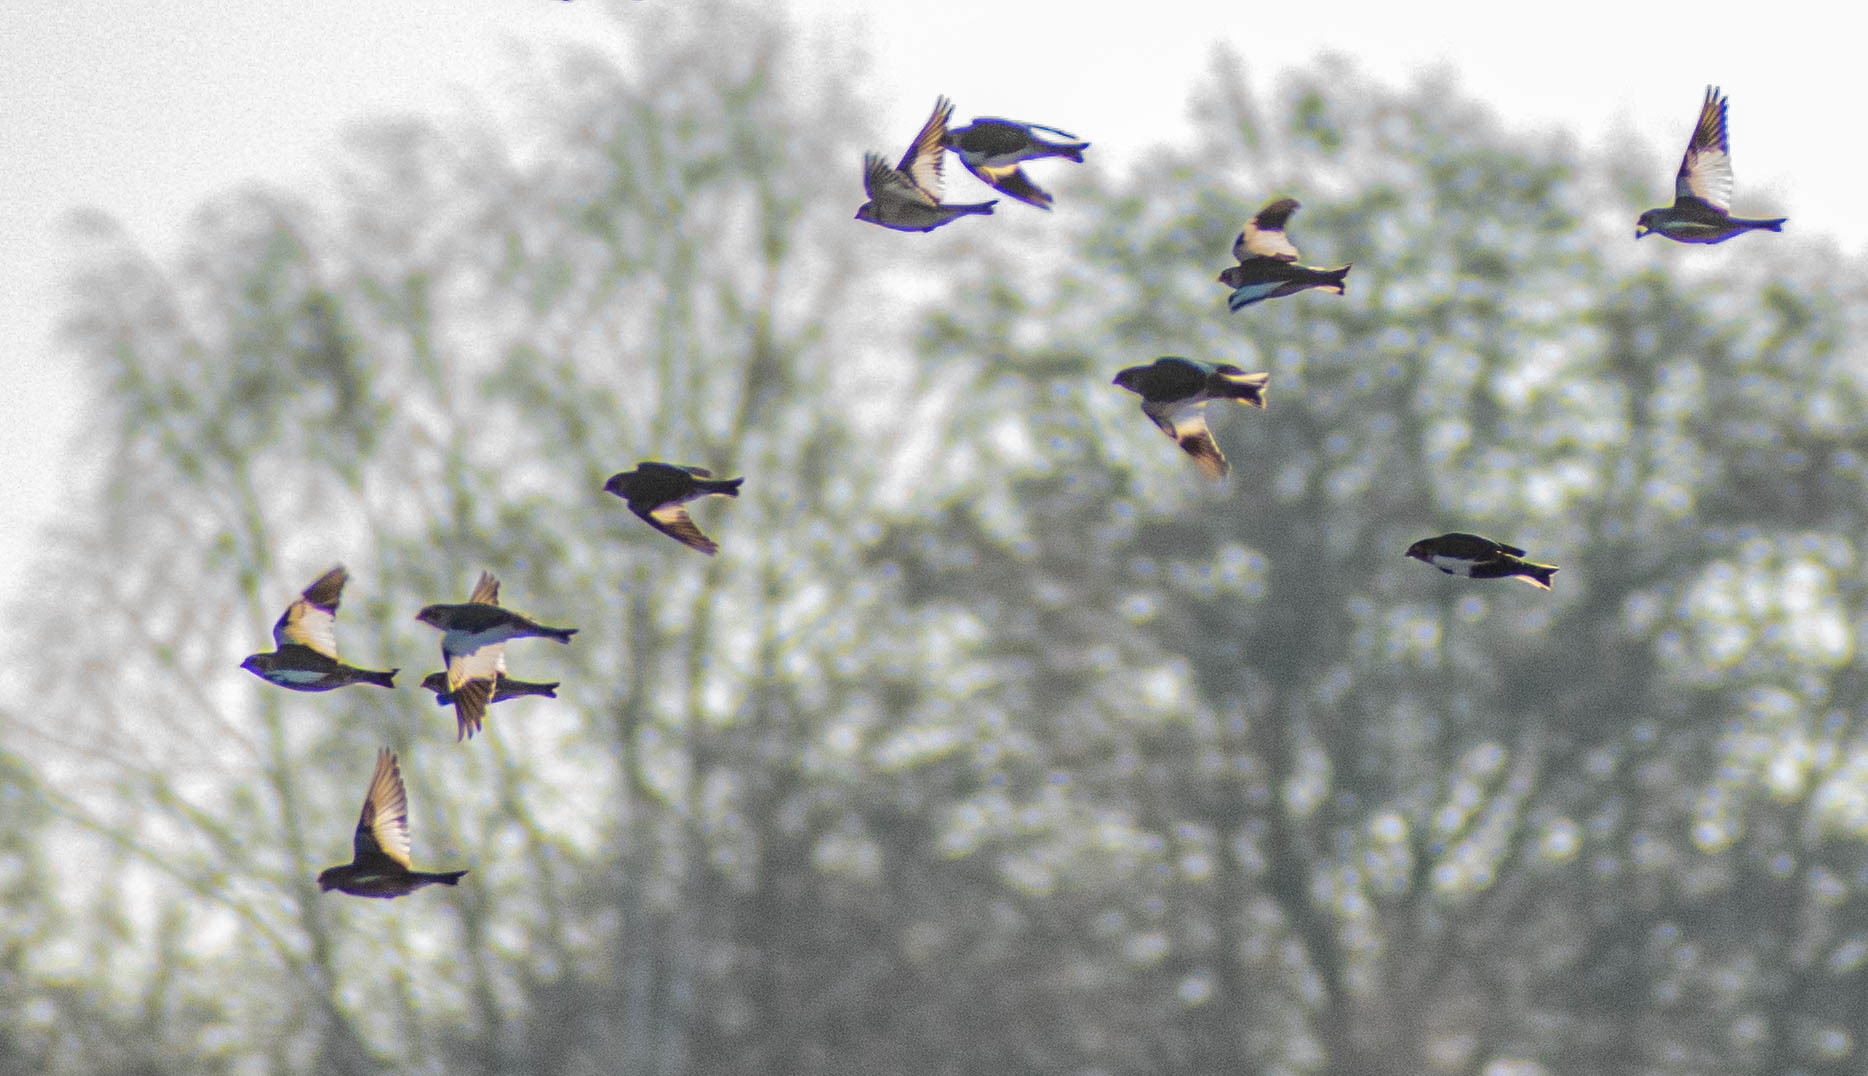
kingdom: Animalia
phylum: Chordata
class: Aves
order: Passeriformes
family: Calcariidae
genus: Plectrophenax
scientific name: Plectrophenax nivalis
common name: Snow bunting
